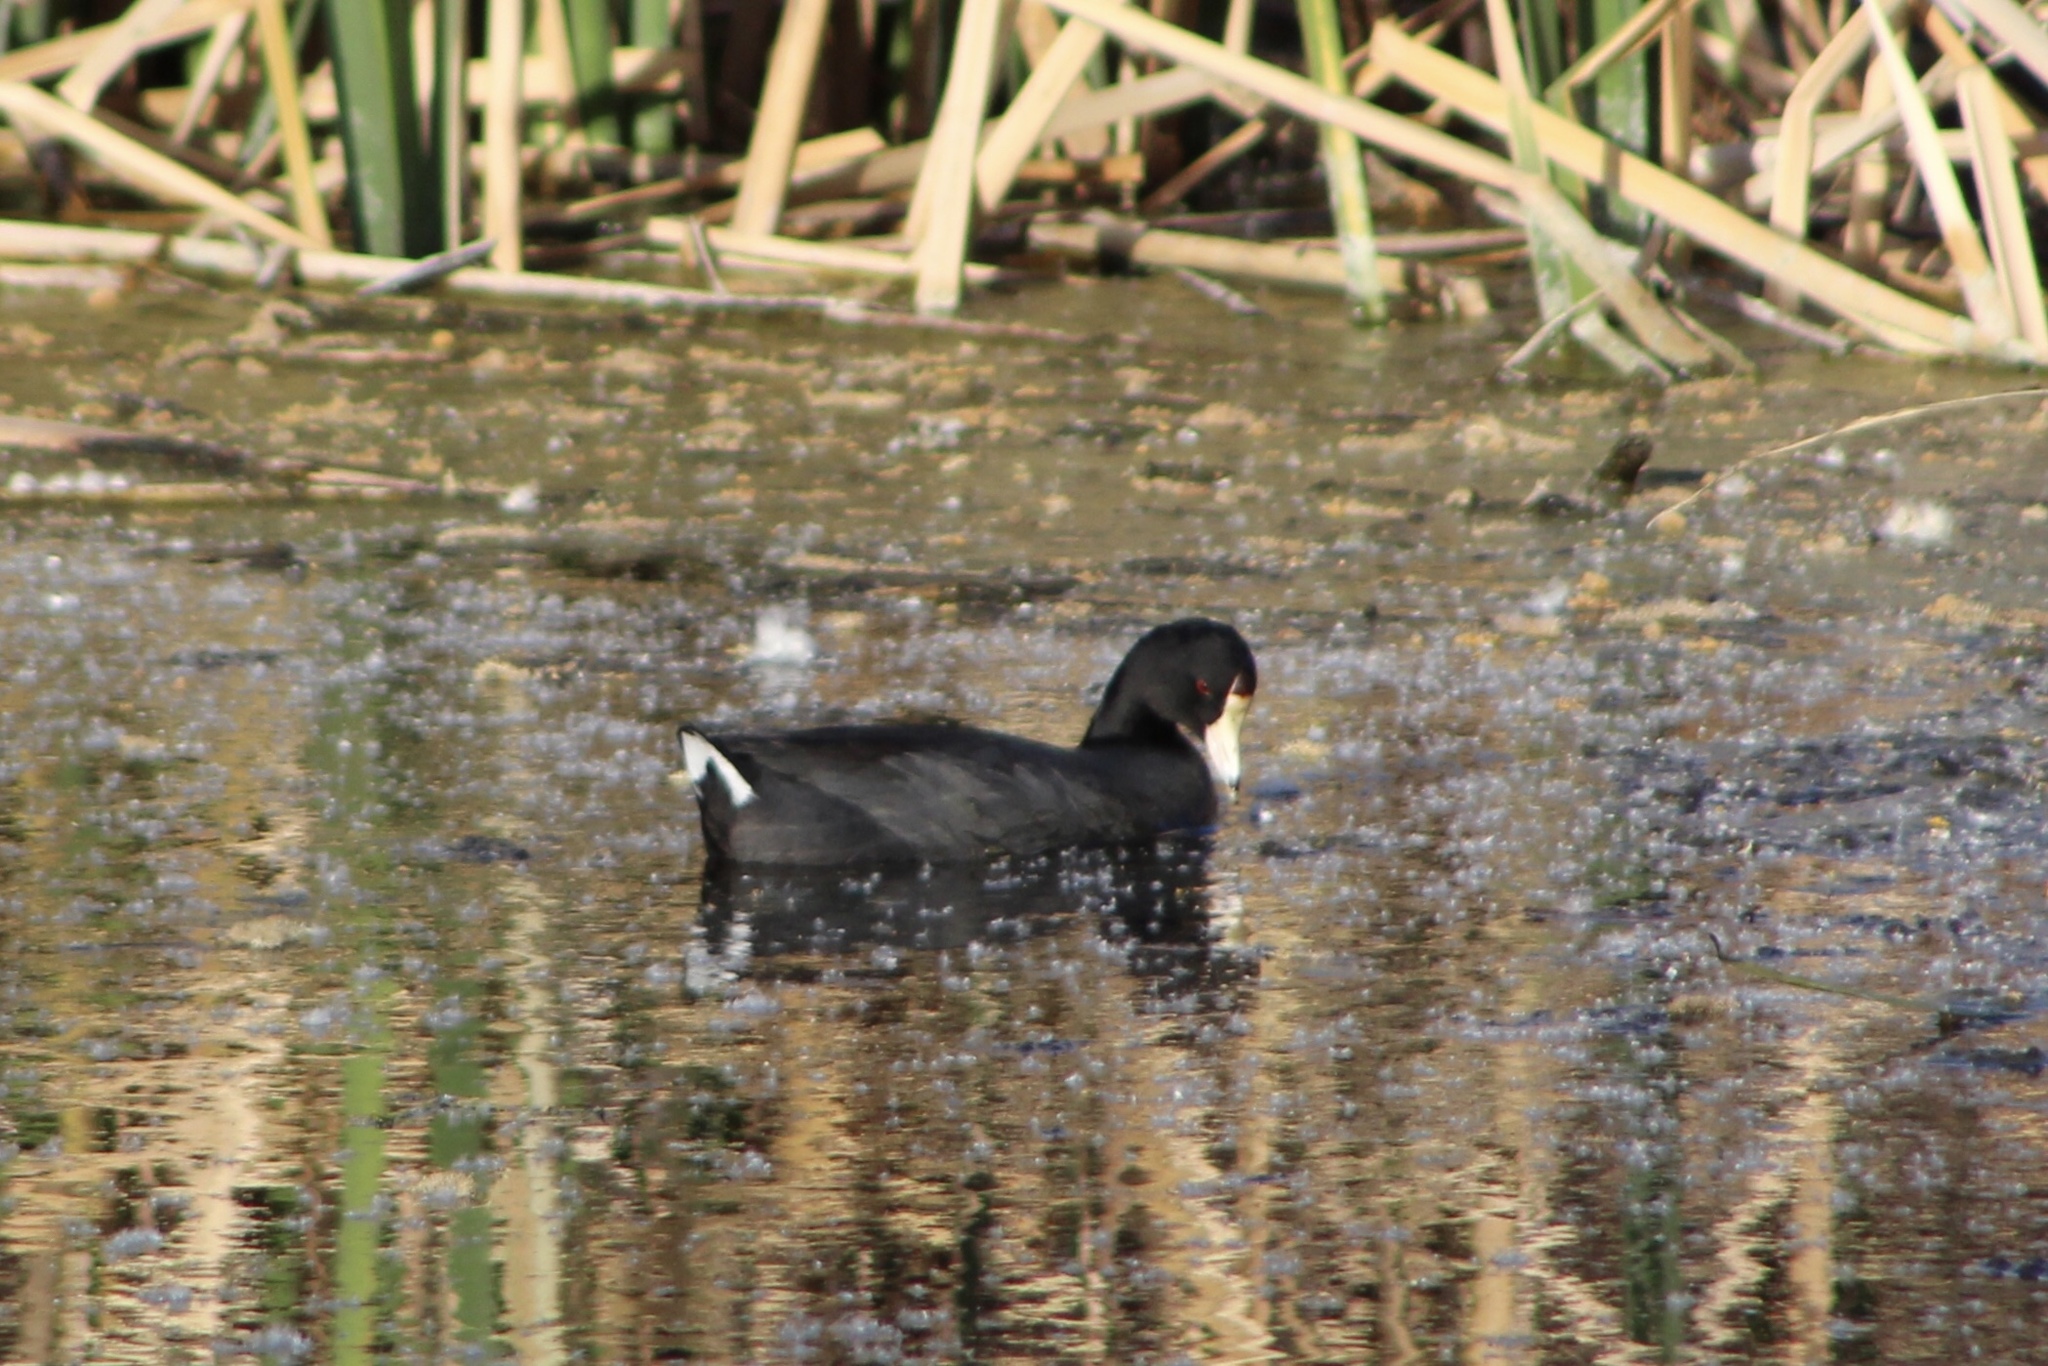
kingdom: Animalia
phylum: Chordata
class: Aves
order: Gruiformes
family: Rallidae
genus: Fulica
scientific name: Fulica americana
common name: American coot
